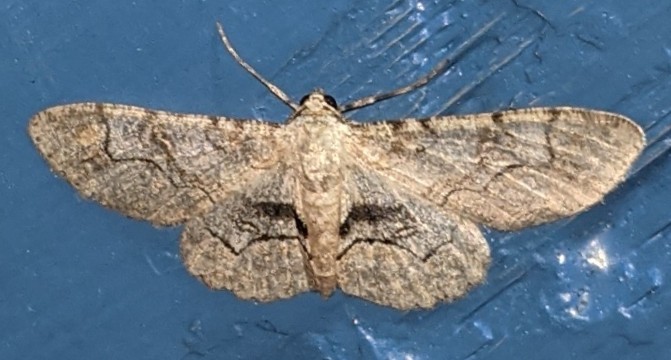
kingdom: Animalia
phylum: Arthropoda
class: Insecta
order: Lepidoptera
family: Geometridae
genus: Iridopsis
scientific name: Iridopsis larvaria
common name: Bent-line gray
